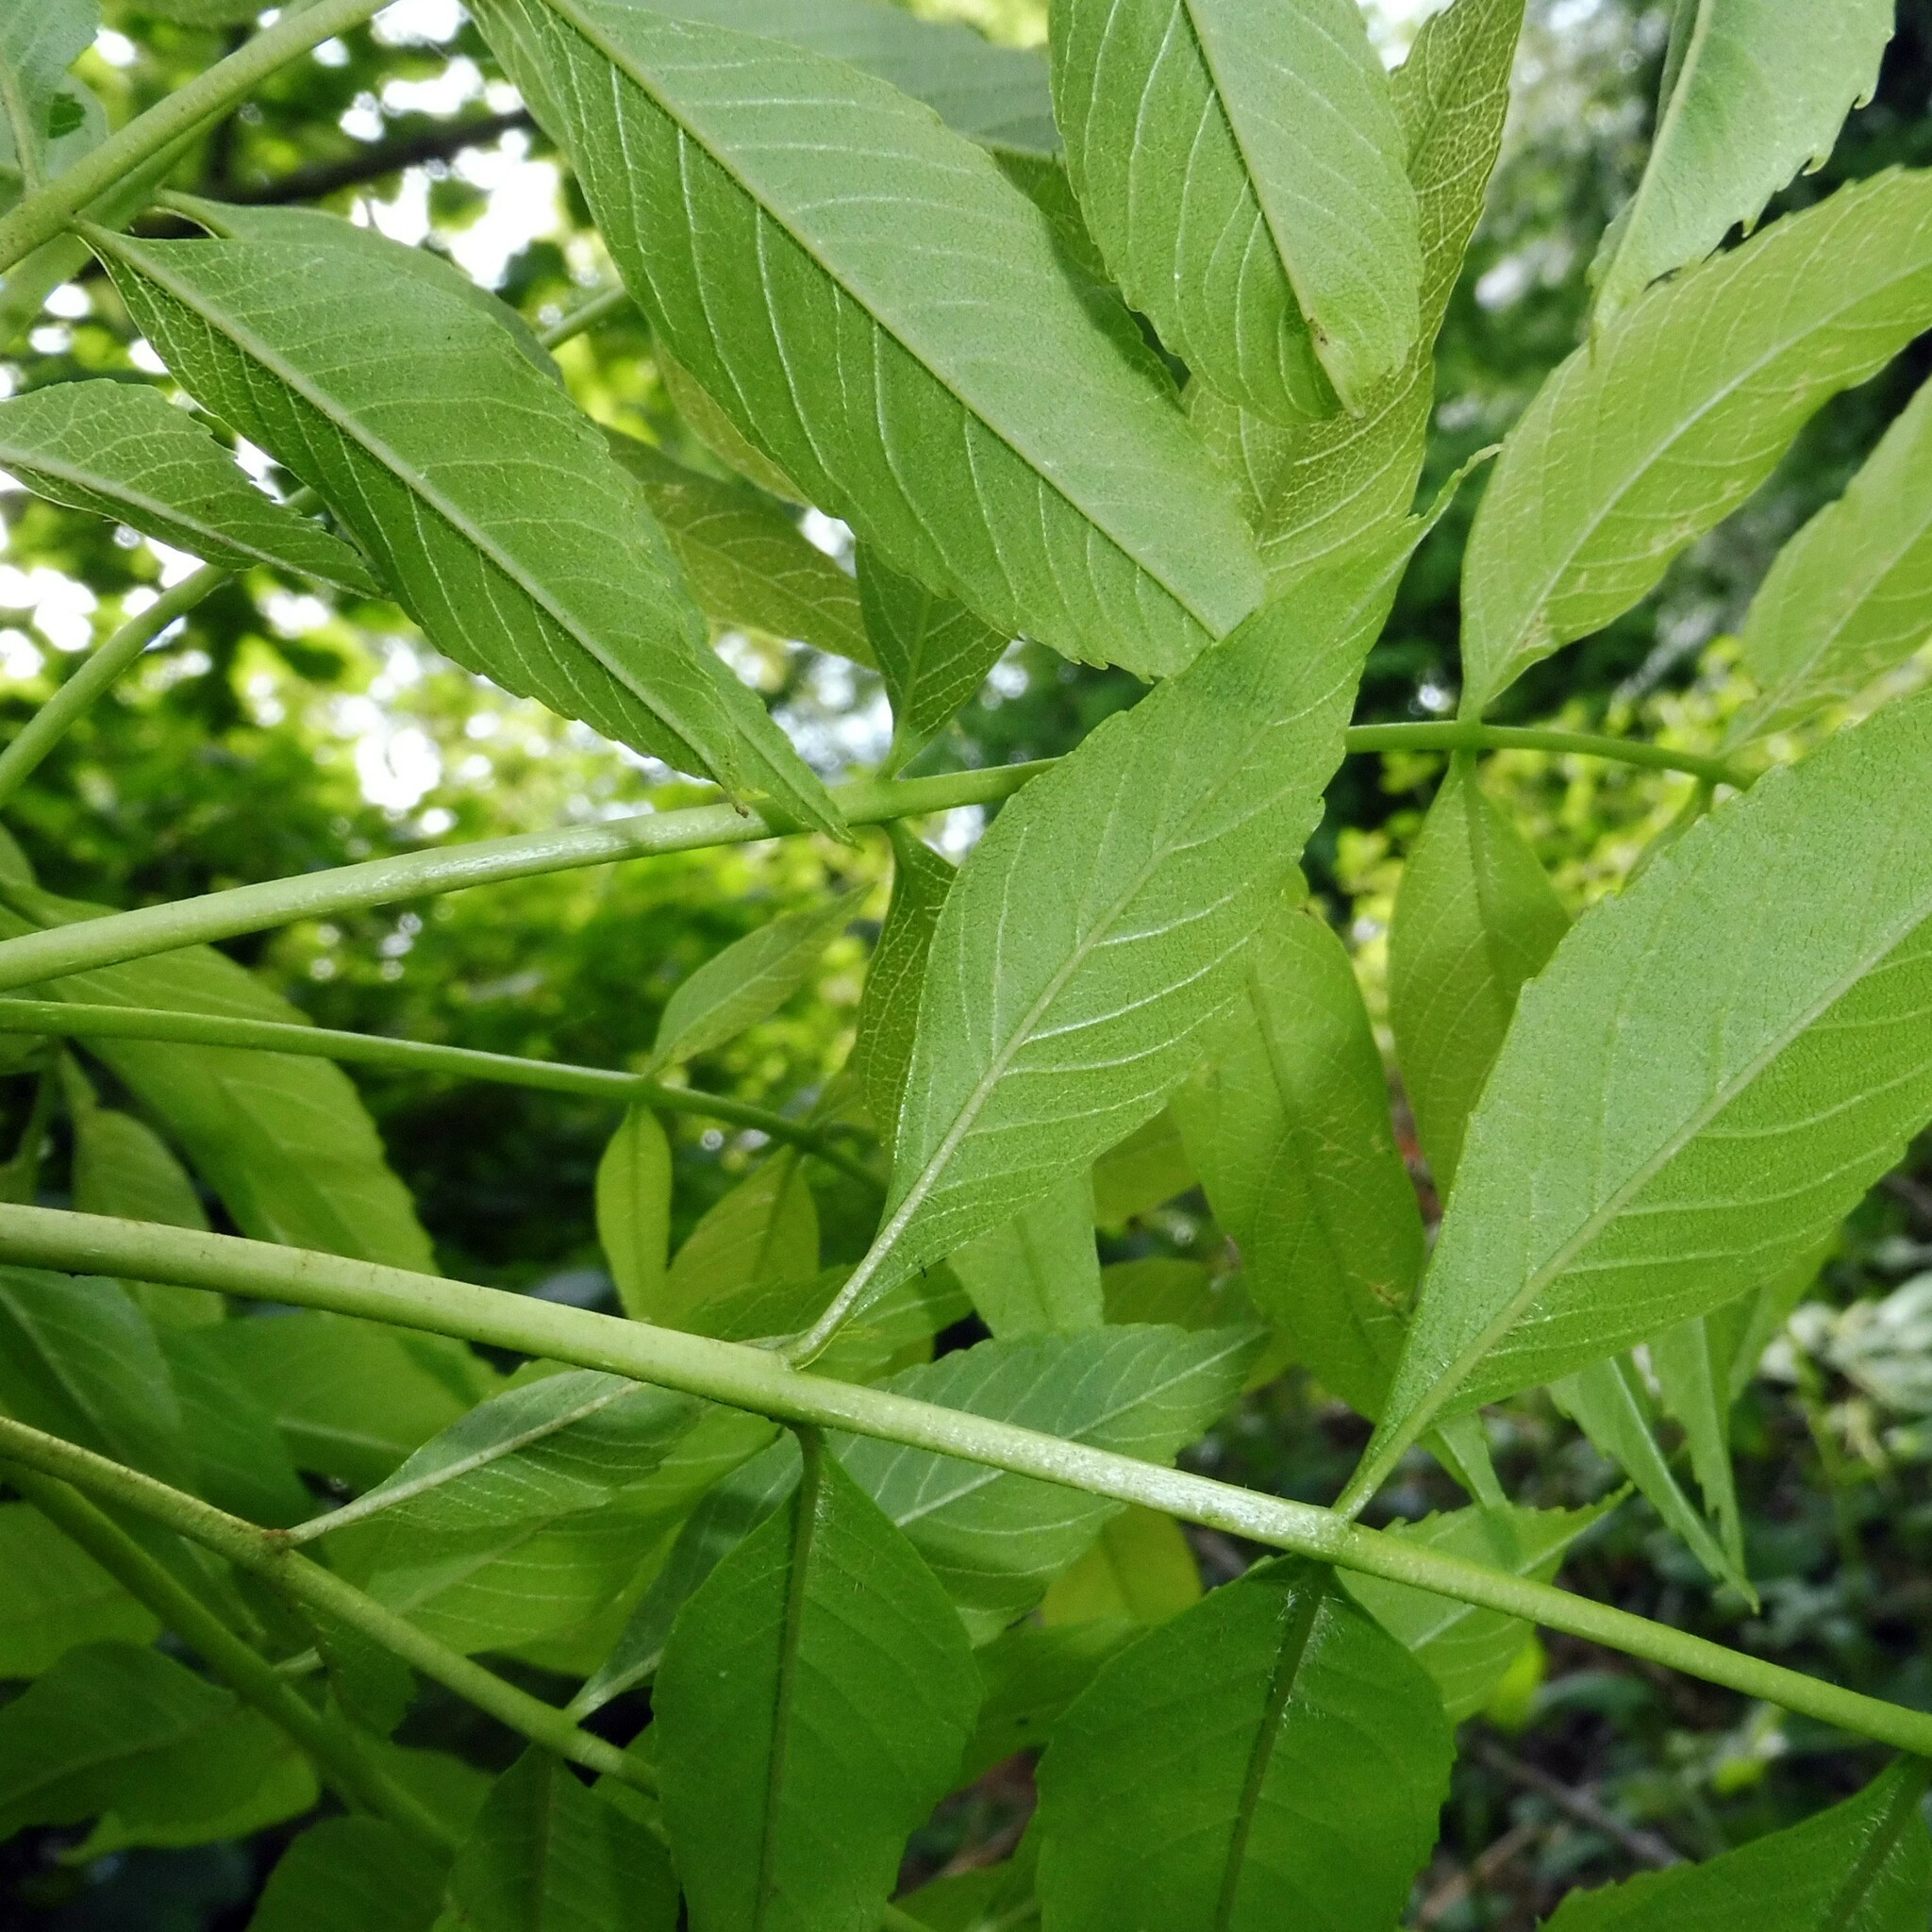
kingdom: Plantae
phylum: Tracheophyta
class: Magnoliopsida
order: Lamiales
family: Oleaceae
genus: Fraxinus
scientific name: Fraxinus excelsior
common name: European ash
